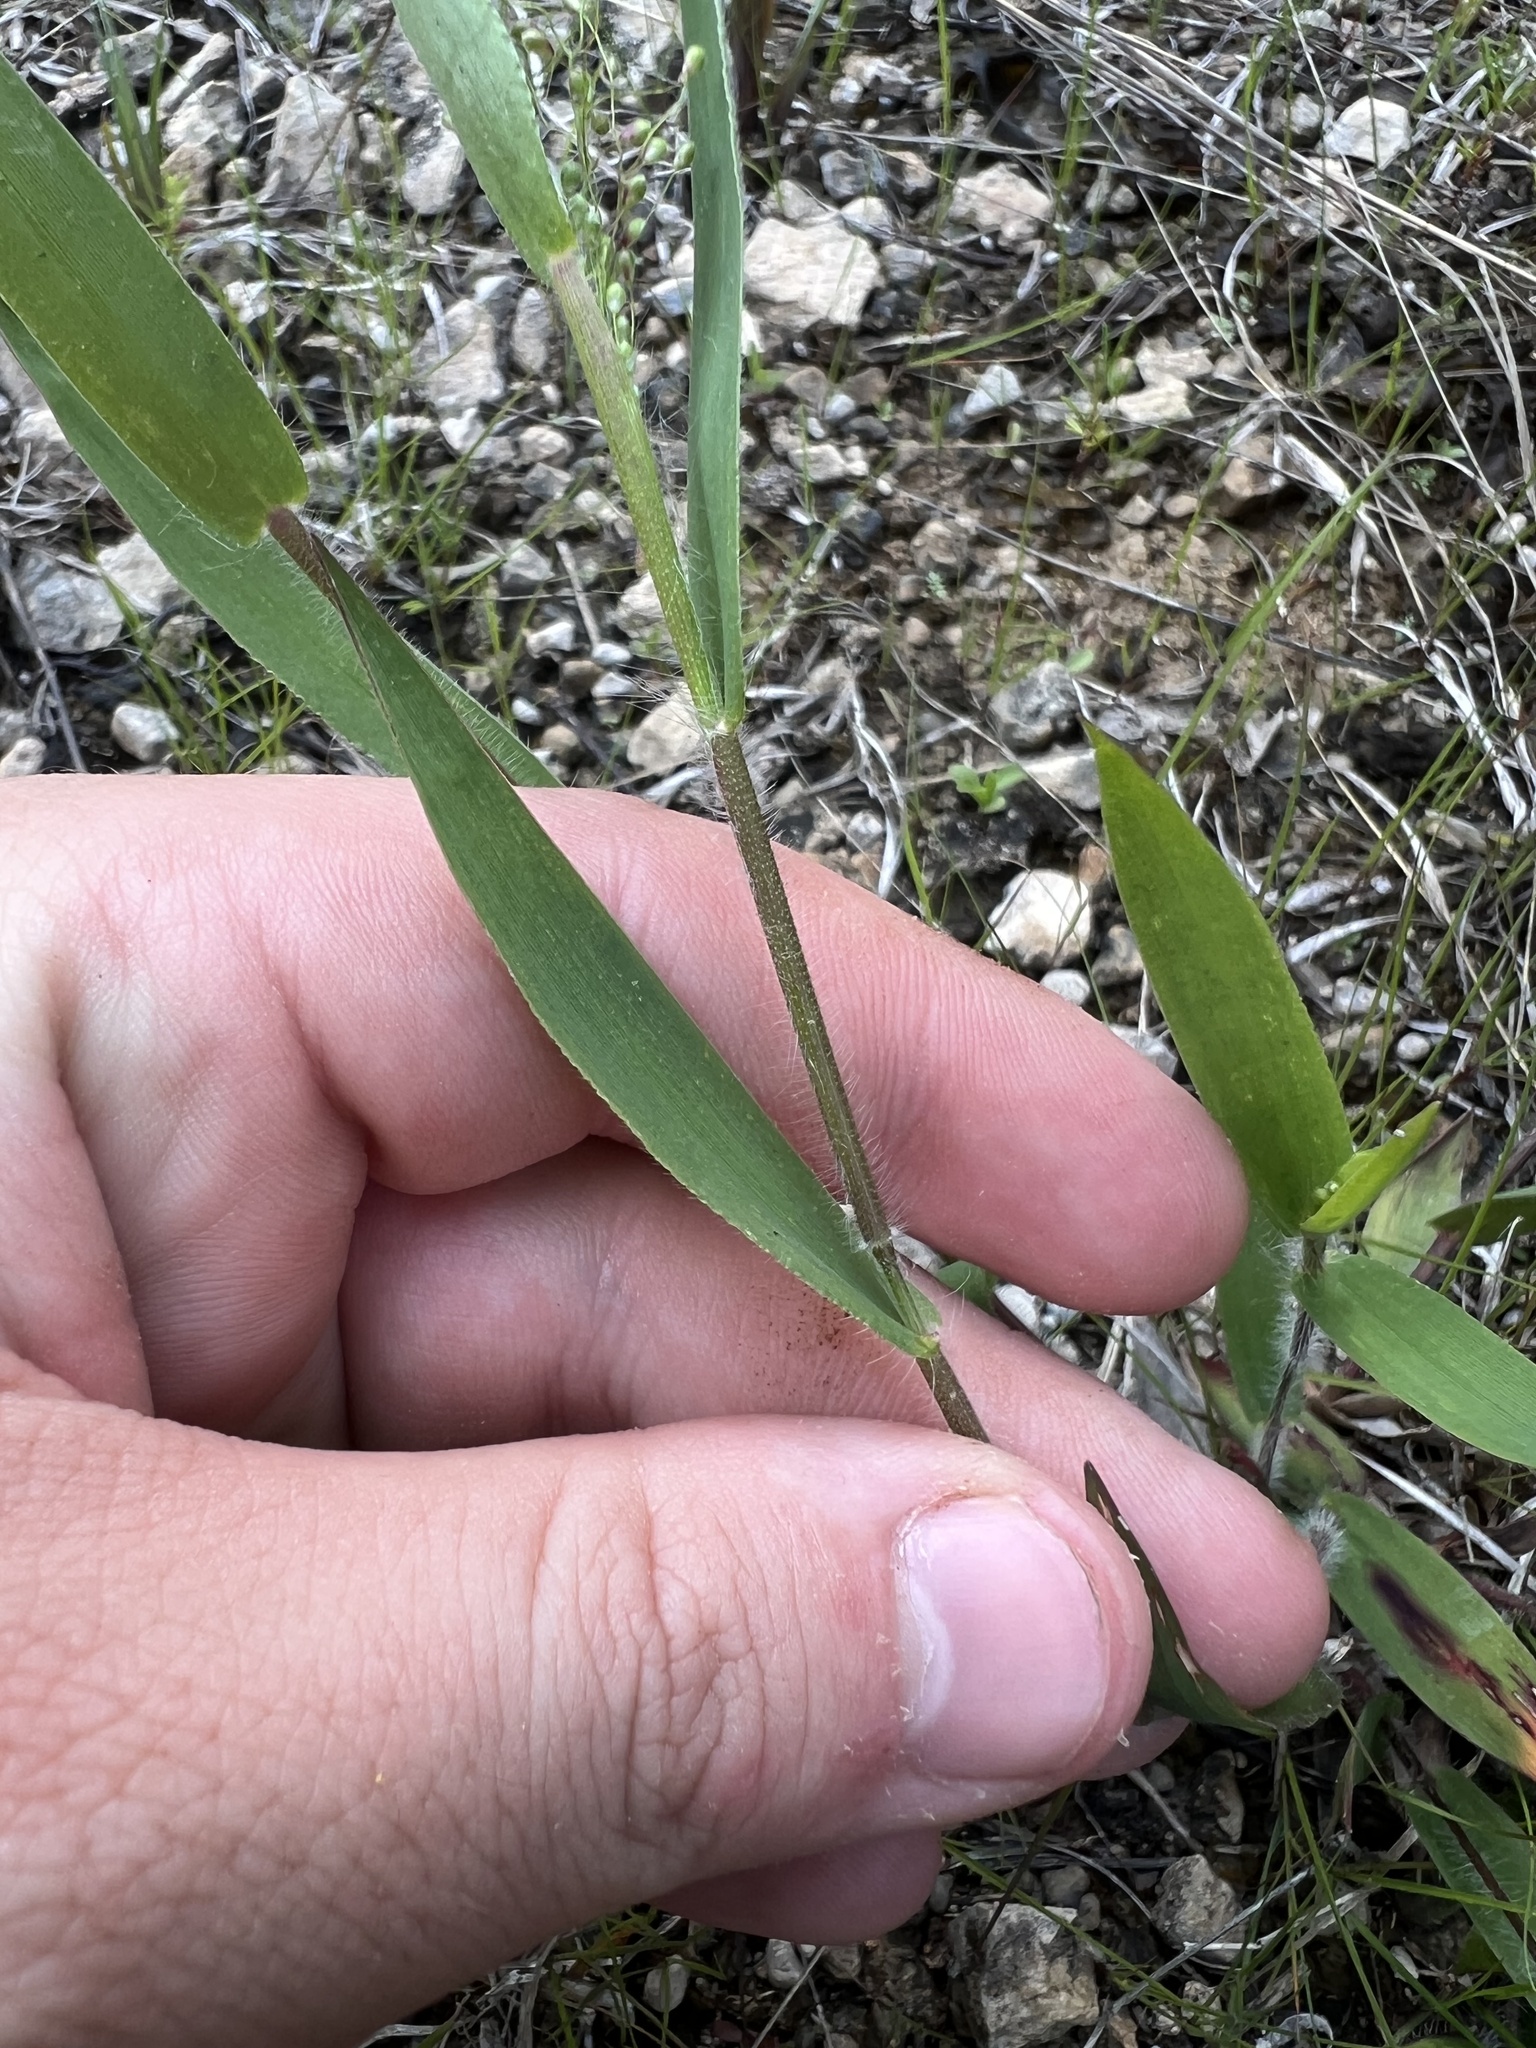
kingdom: Plantae
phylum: Tracheophyta
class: Liliopsida
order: Poales
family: Poaceae
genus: Dichanthelium
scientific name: Dichanthelium malacophyllum
